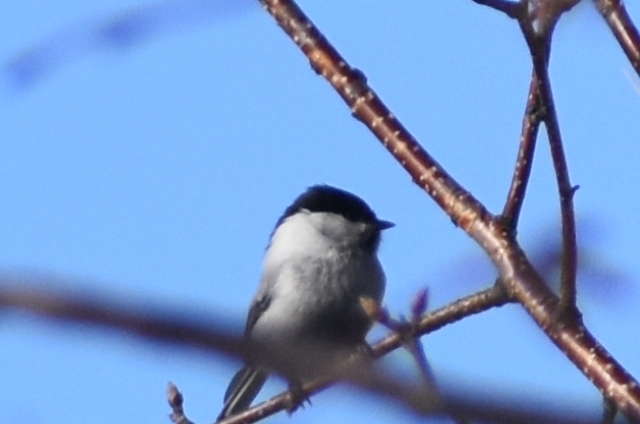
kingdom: Animalia
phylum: Chordata
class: Aves
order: Passeriformes
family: Paridae
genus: Poecile
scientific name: Poecile montanus
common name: Willow tit
